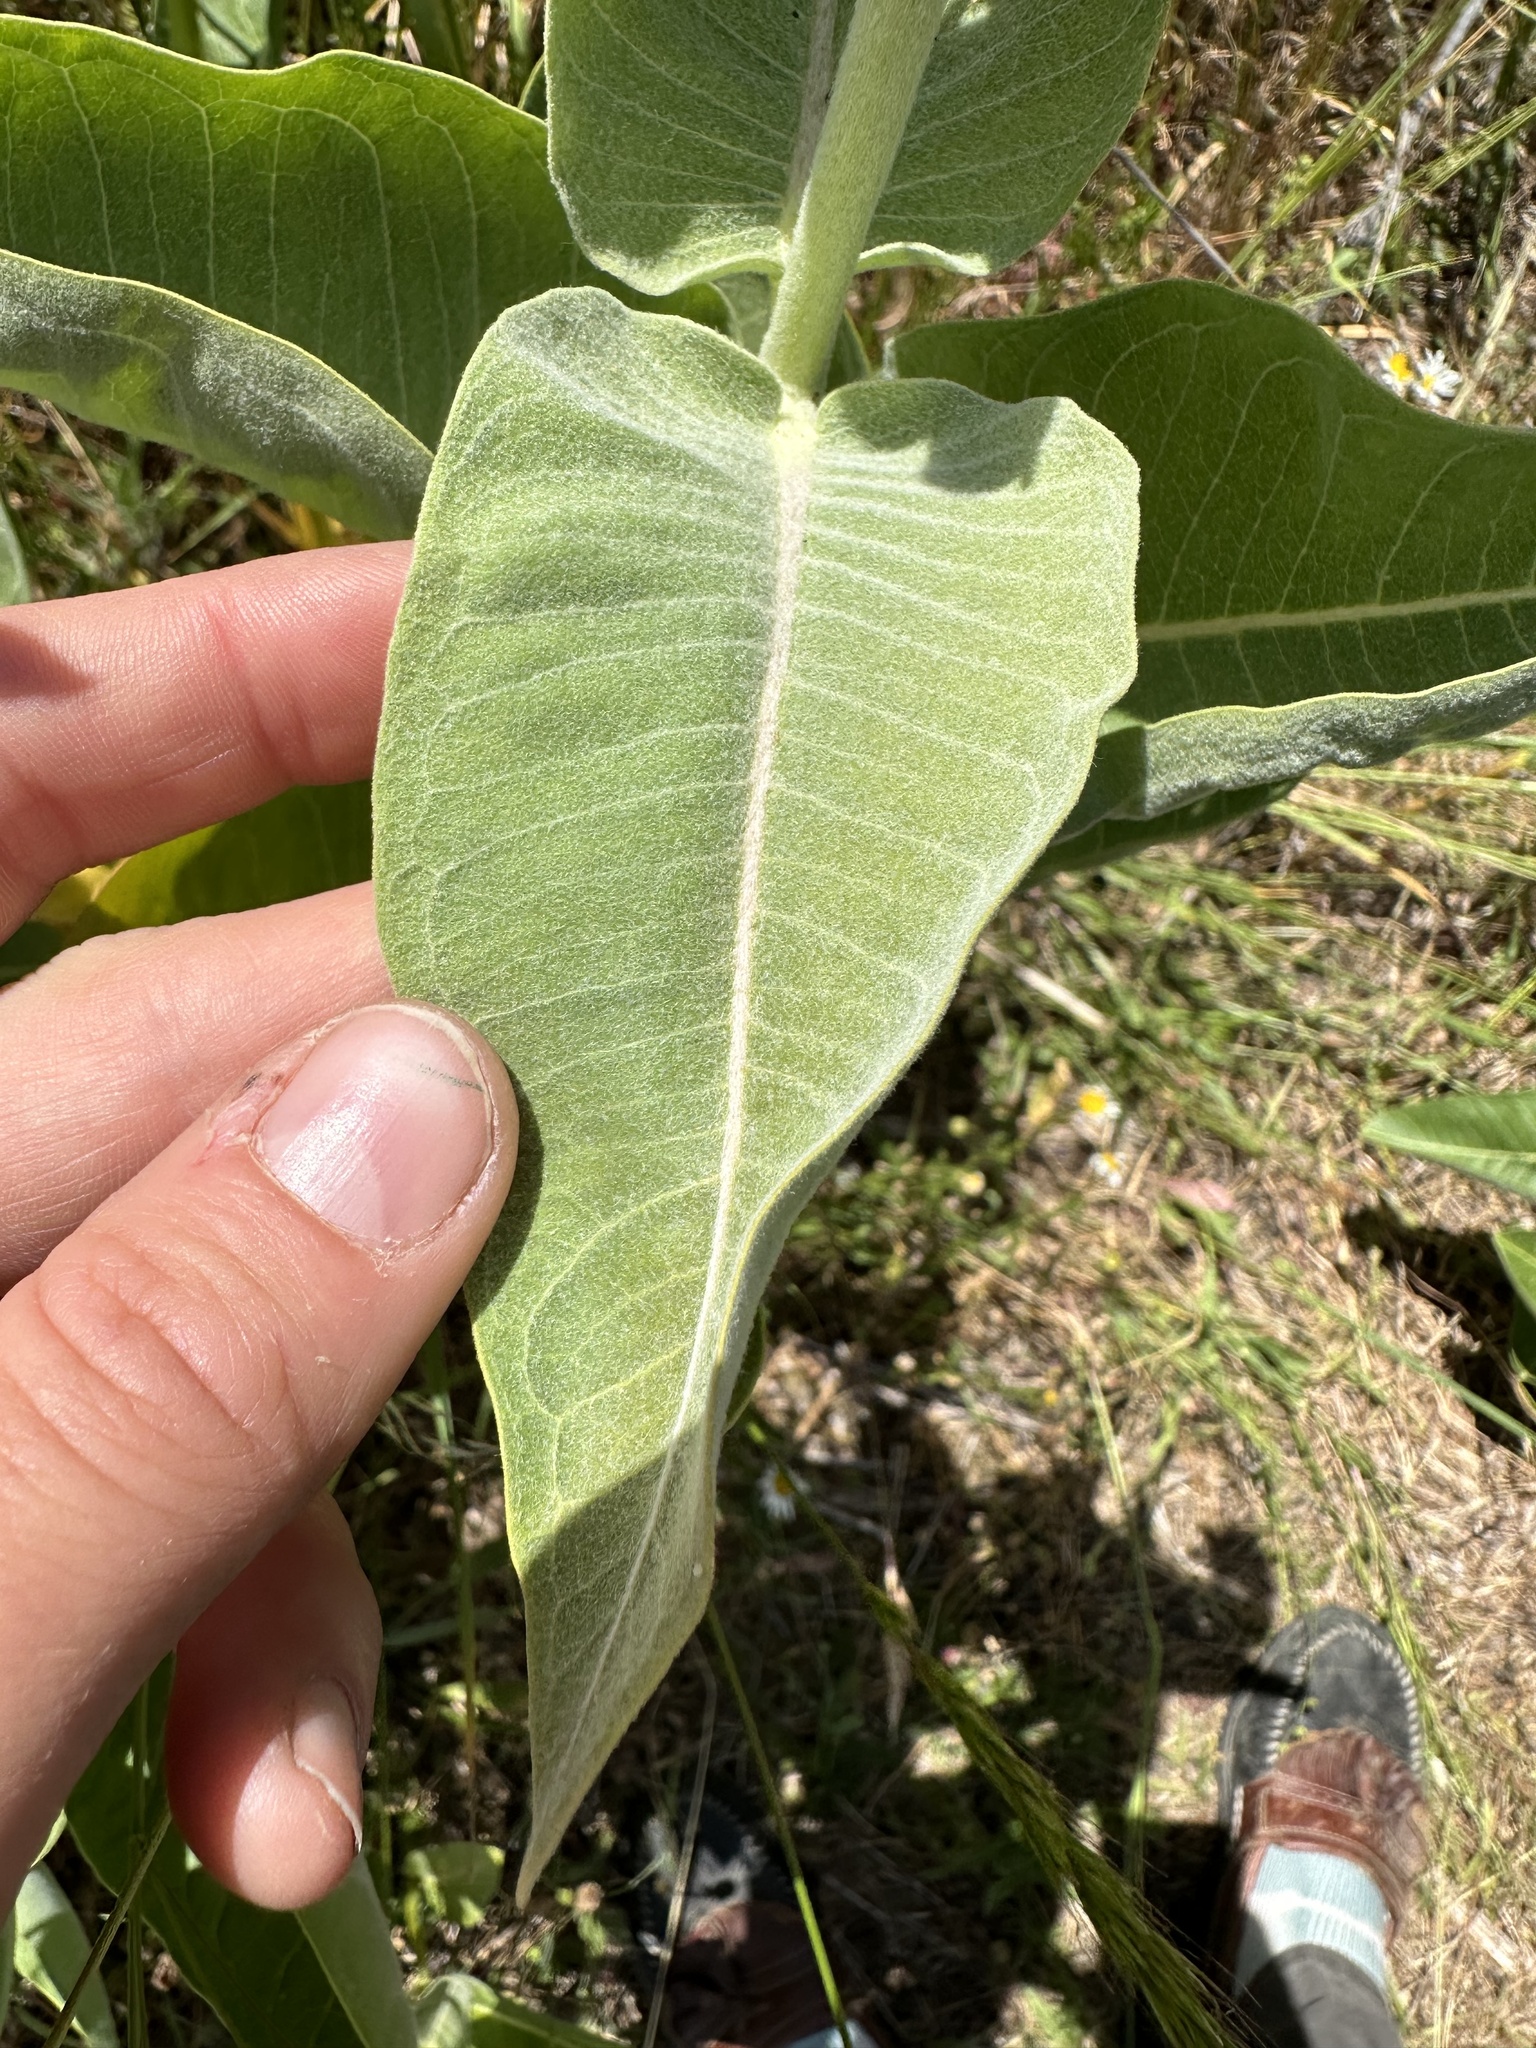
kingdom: Plantae
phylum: Tracheophyta
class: Magnoliopsida
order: Gentianales
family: Apocynaceae
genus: Asclepias
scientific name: Asclepias speciosa
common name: Showy milkweed
